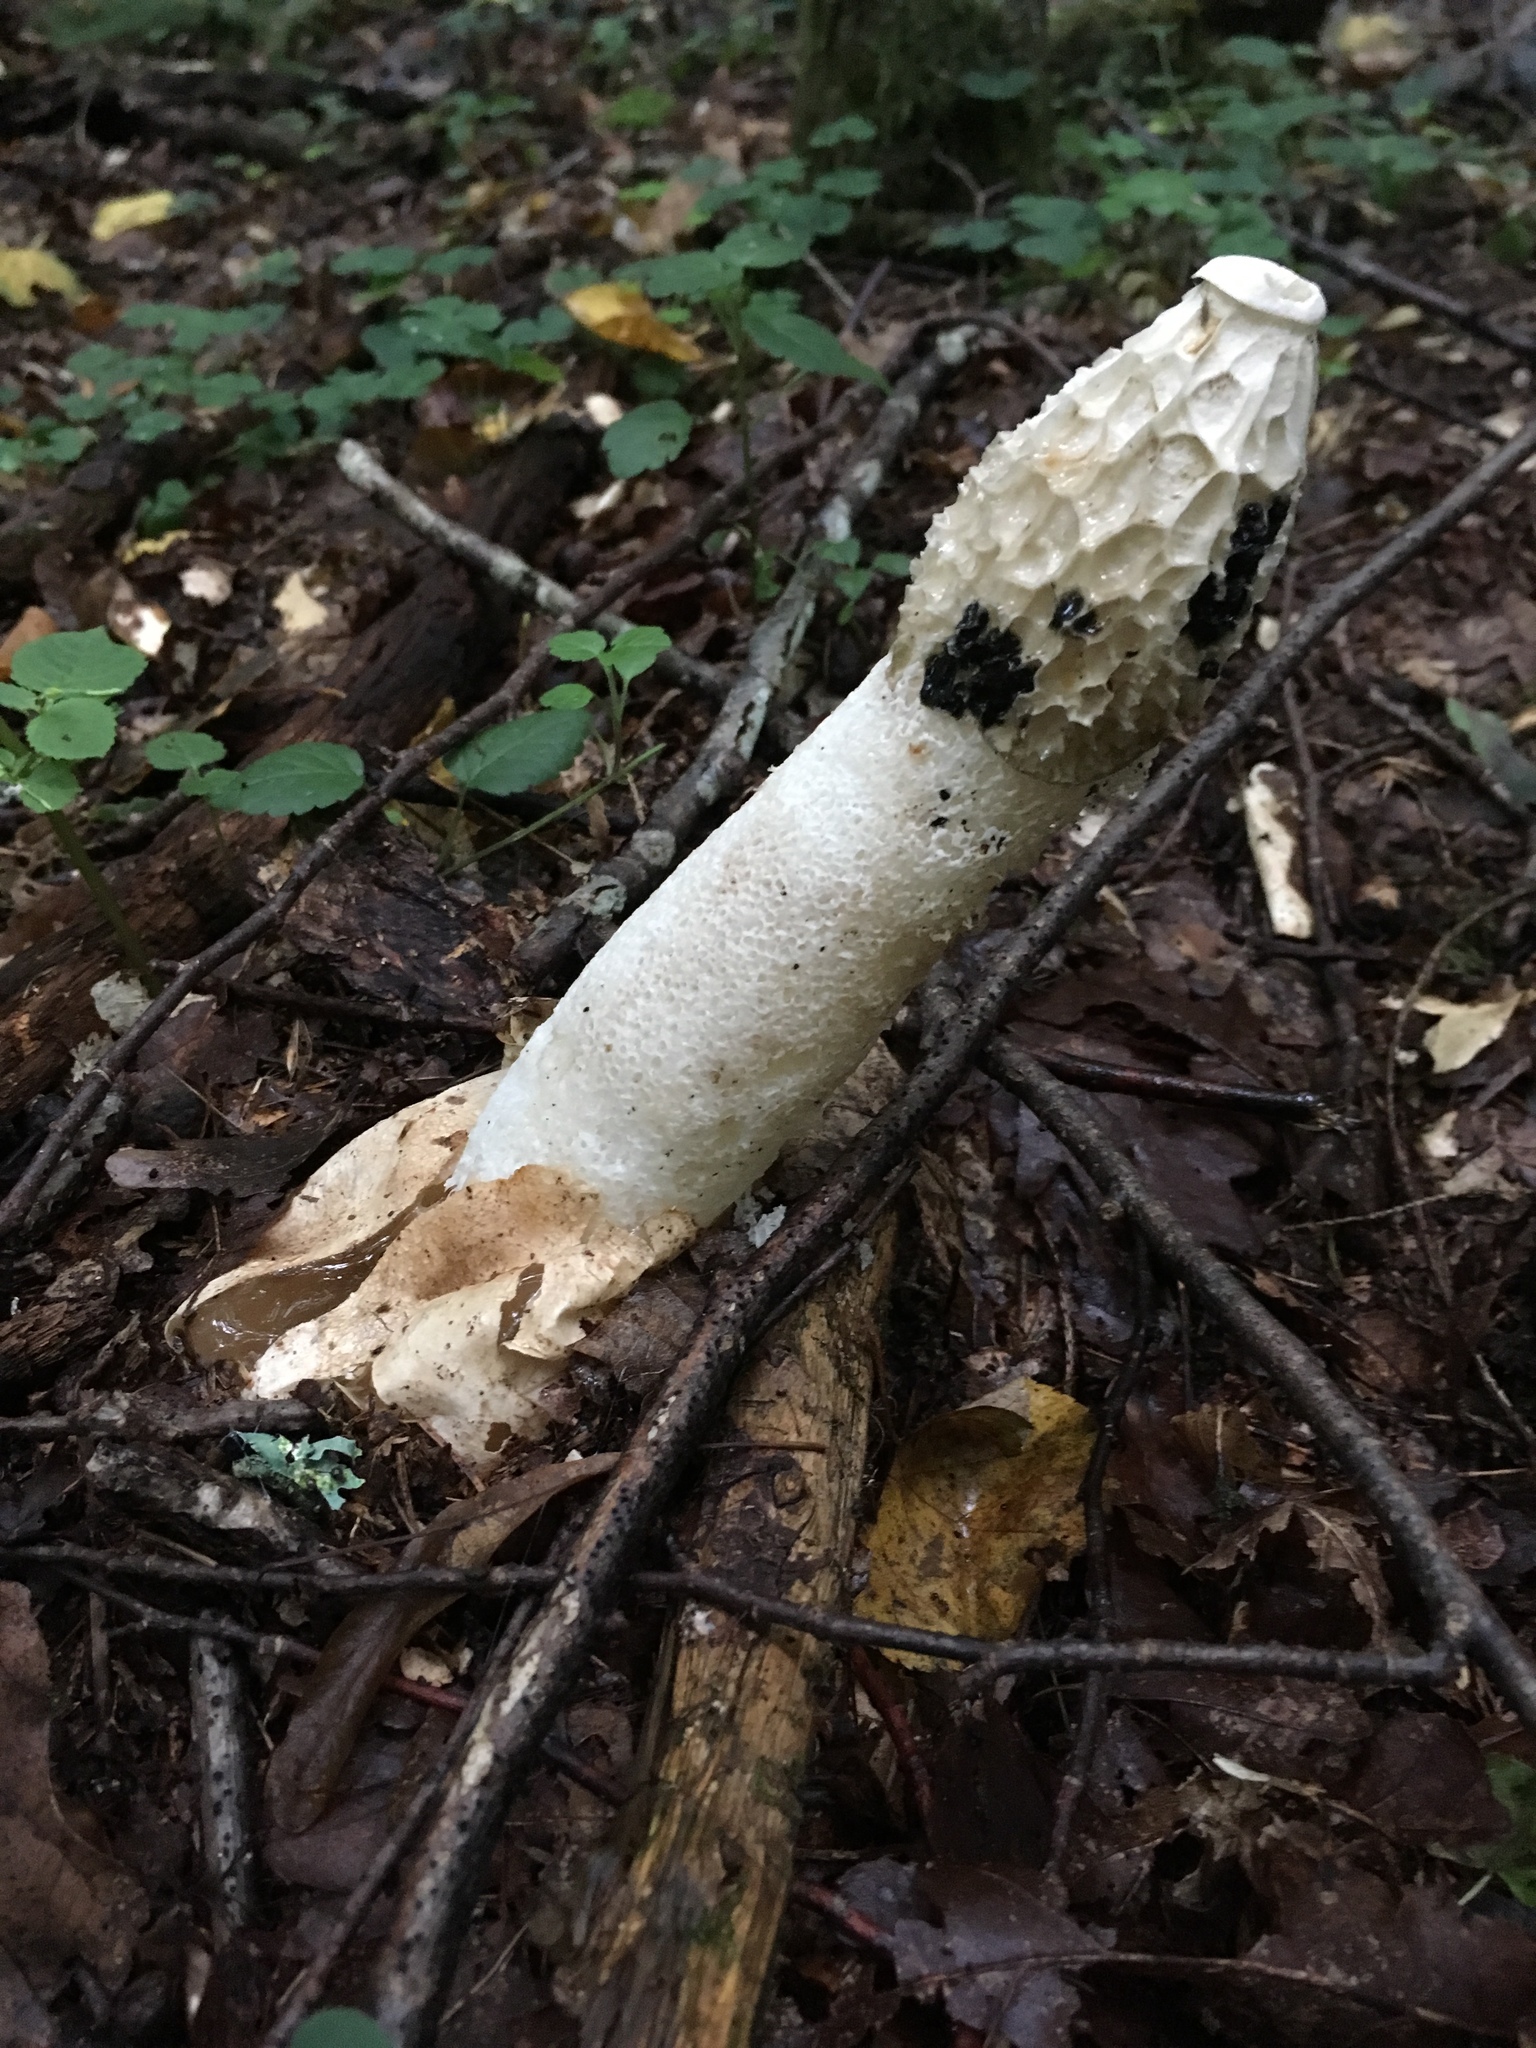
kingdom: Fungi
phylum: Basidiomycota
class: Agaricomycetes
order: Phallales
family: Phallaceae
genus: Phallus
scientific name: Phallus impudicus
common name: Common stinkhorn
